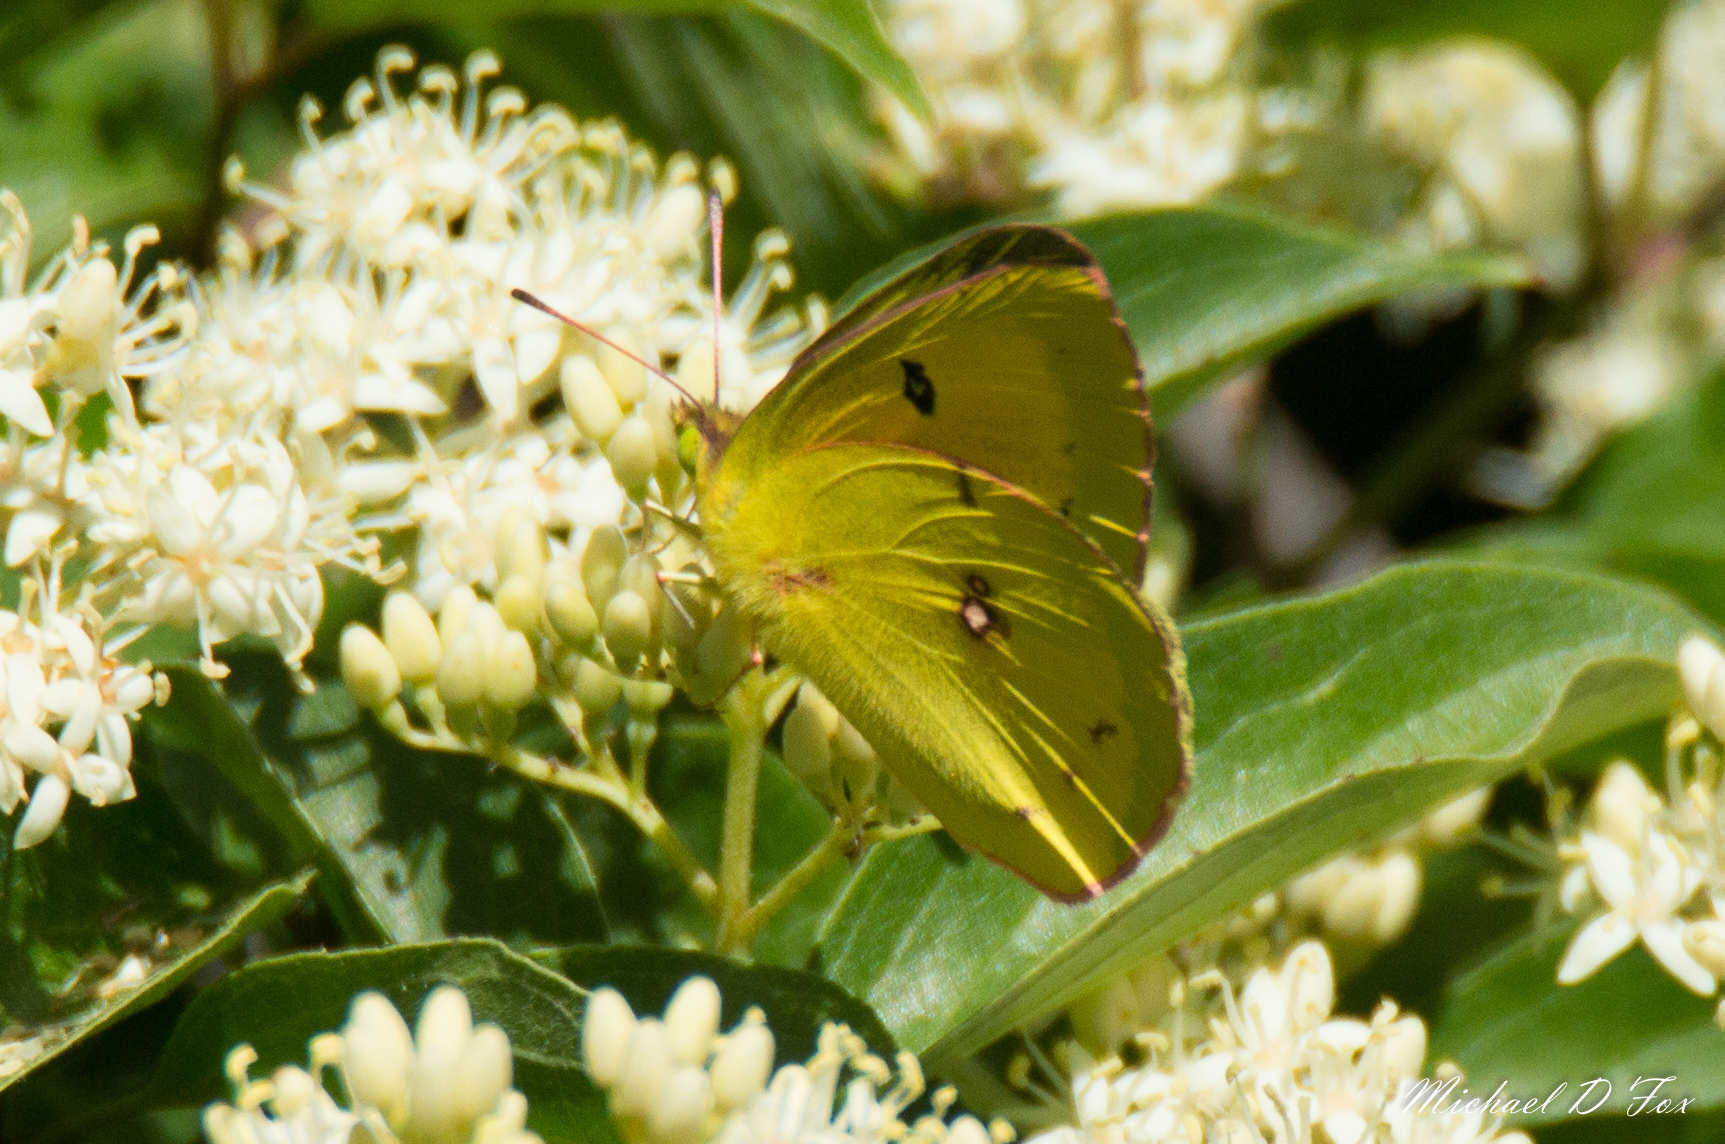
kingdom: Animalia
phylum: Arthropoda
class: Insecta
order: Lepidoptera
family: Pieridae
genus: Colias
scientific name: Colias eurytheme
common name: Alfalfa butterfly
